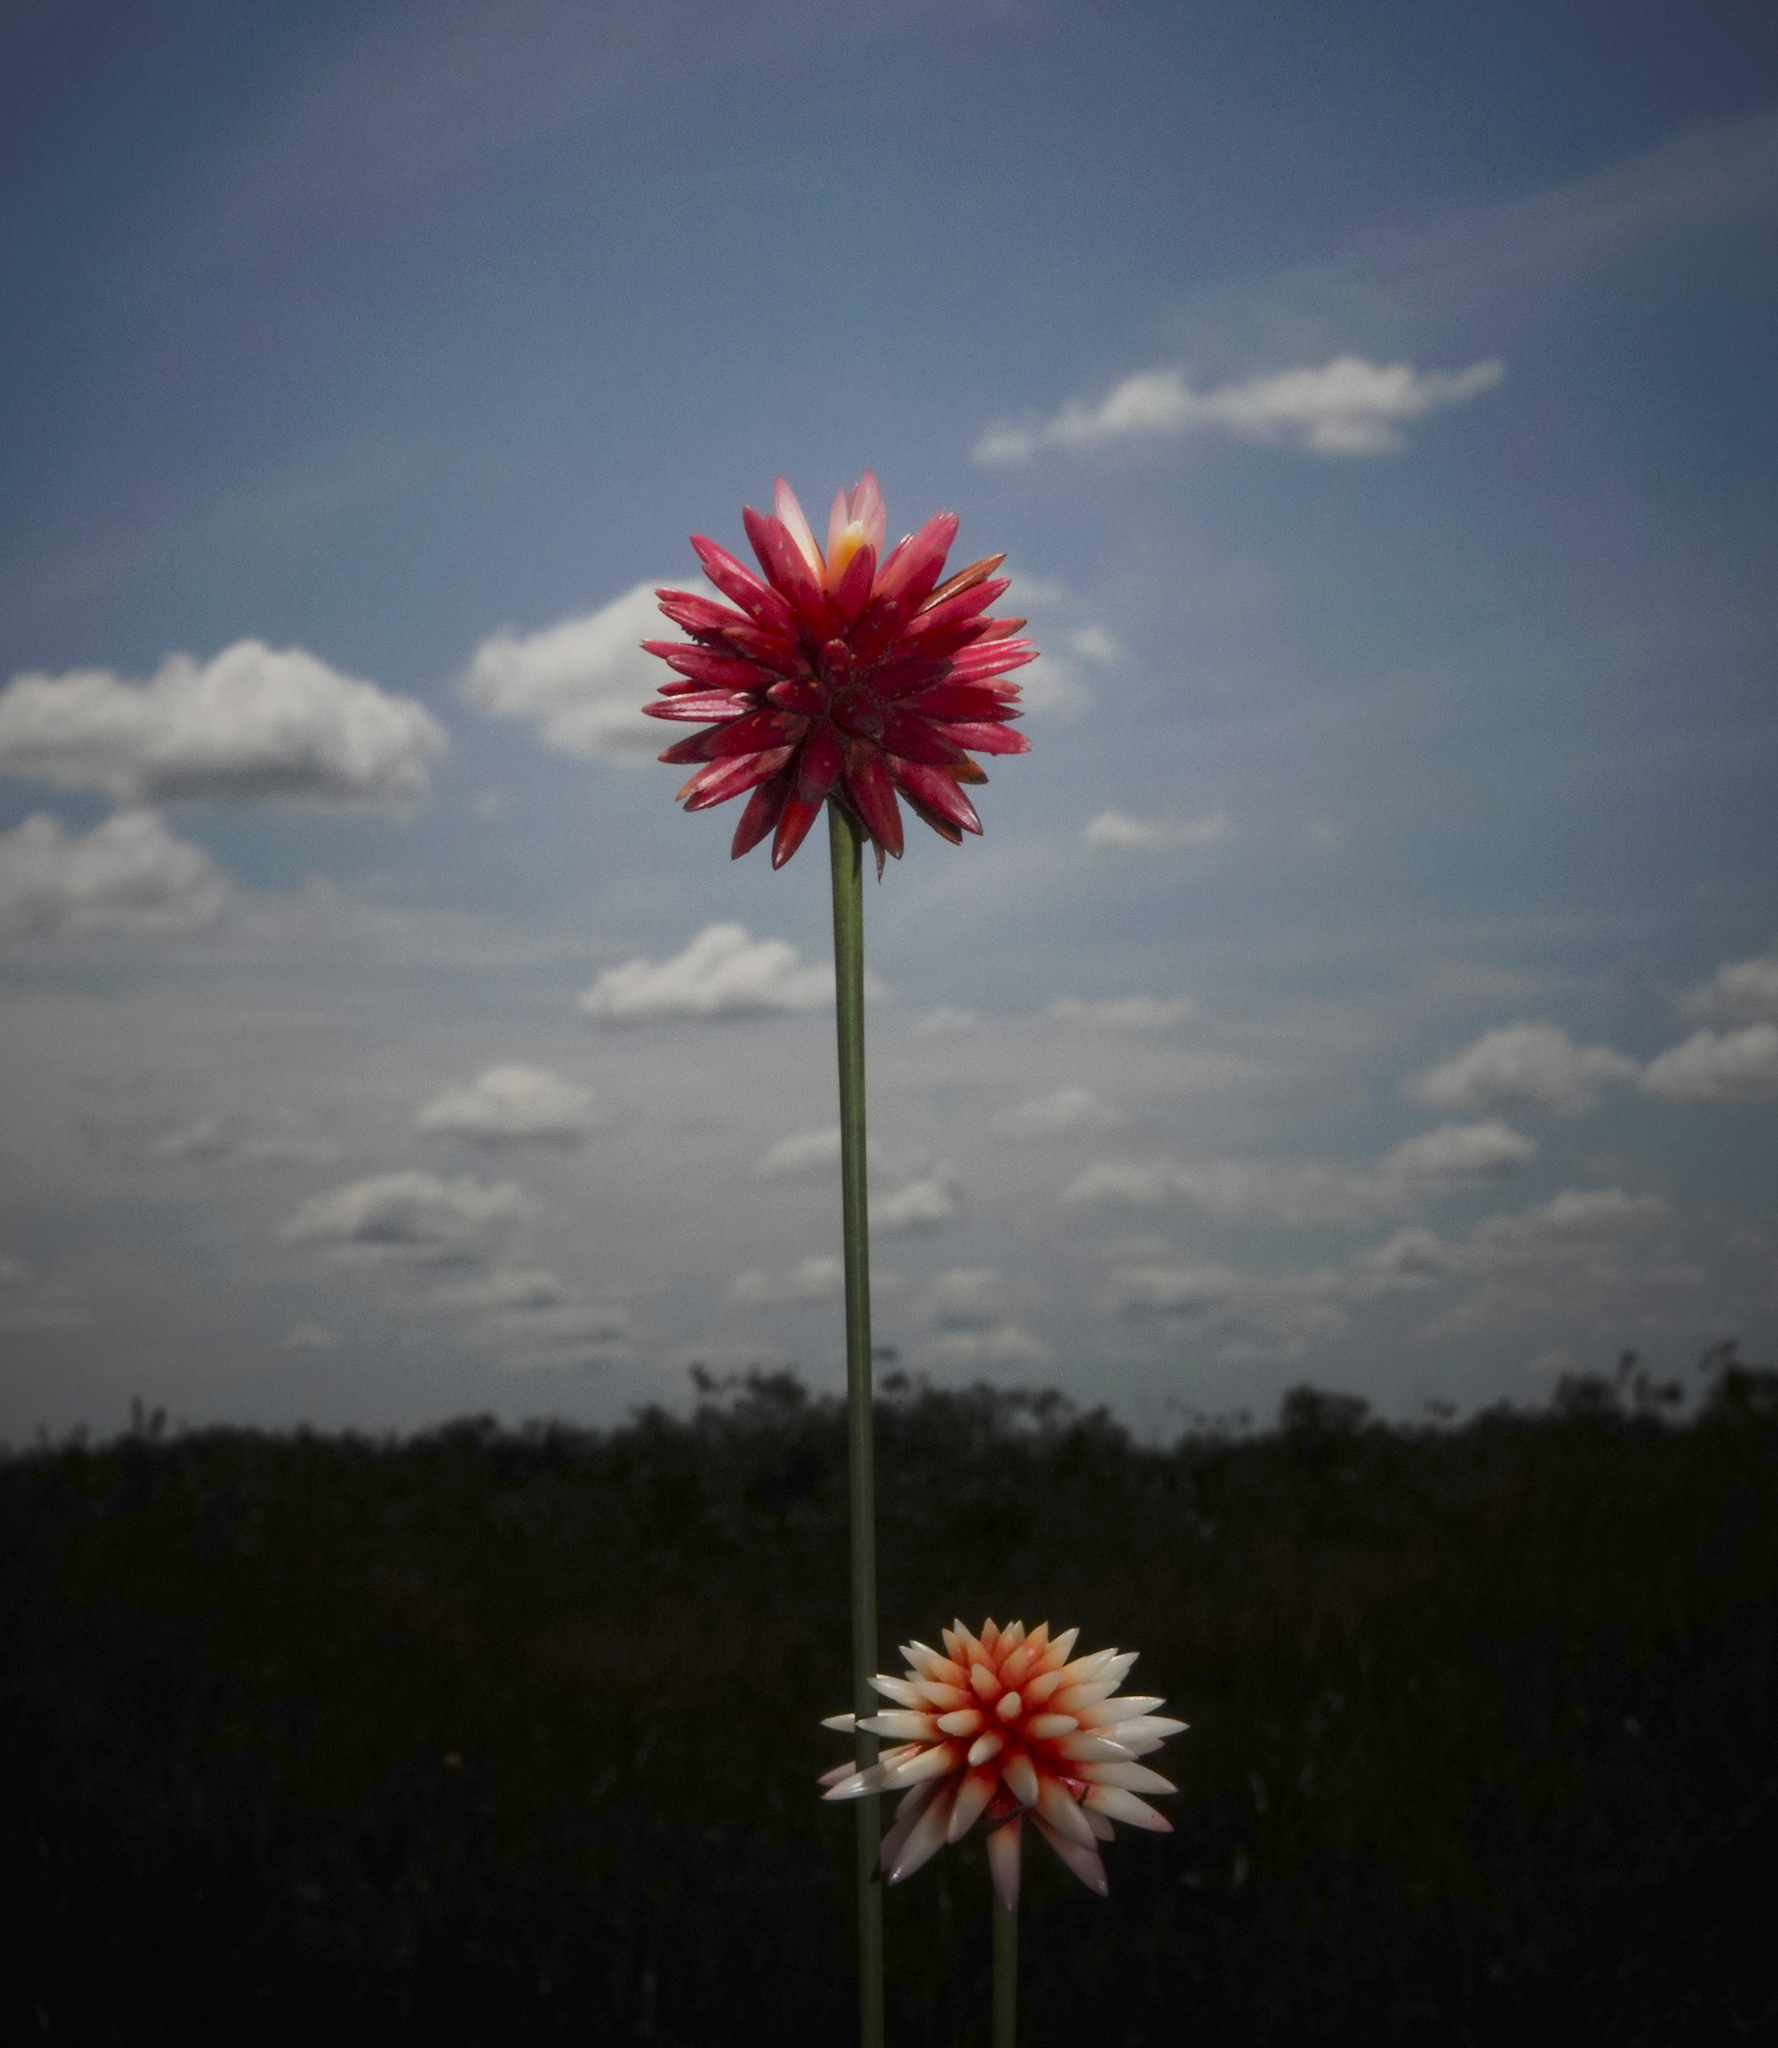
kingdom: Plantae
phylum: Tracheophyta
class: Liliopsida
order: Poales
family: Rapateaceae
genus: Guacamaya
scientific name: Guacamaya superba
